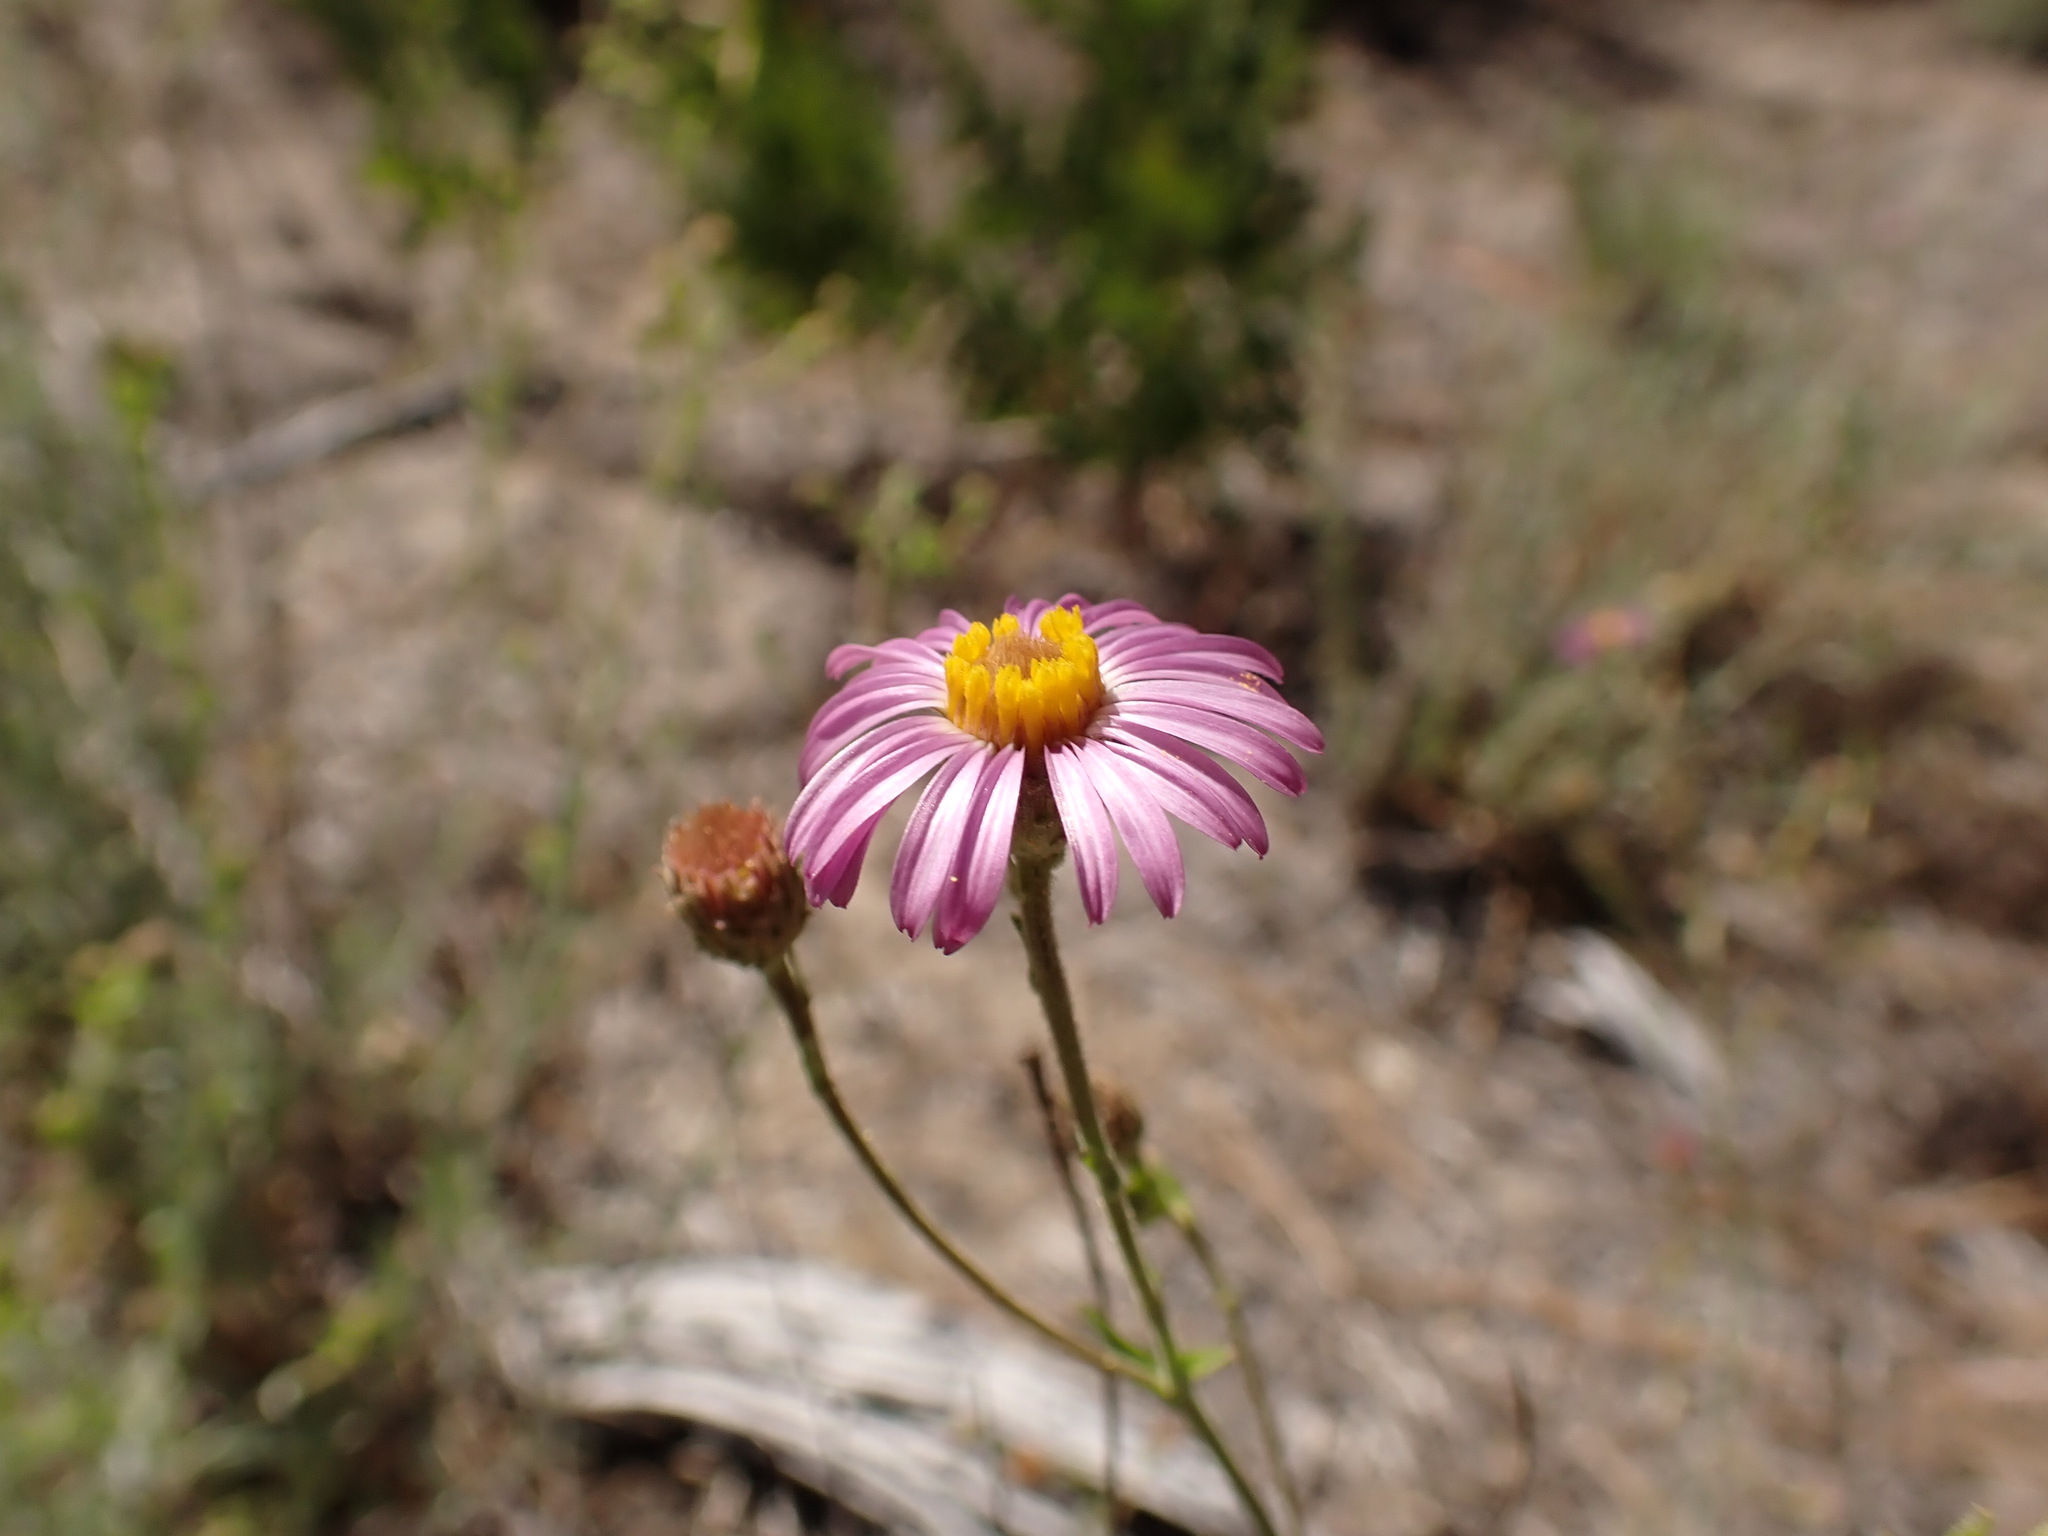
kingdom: Plantae
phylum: Tracheophyta
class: Magnoliopsida
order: Asterales
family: Asteraceae
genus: Corethrogyne
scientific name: Corethrogyne filaginifolia
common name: Sand-aster
